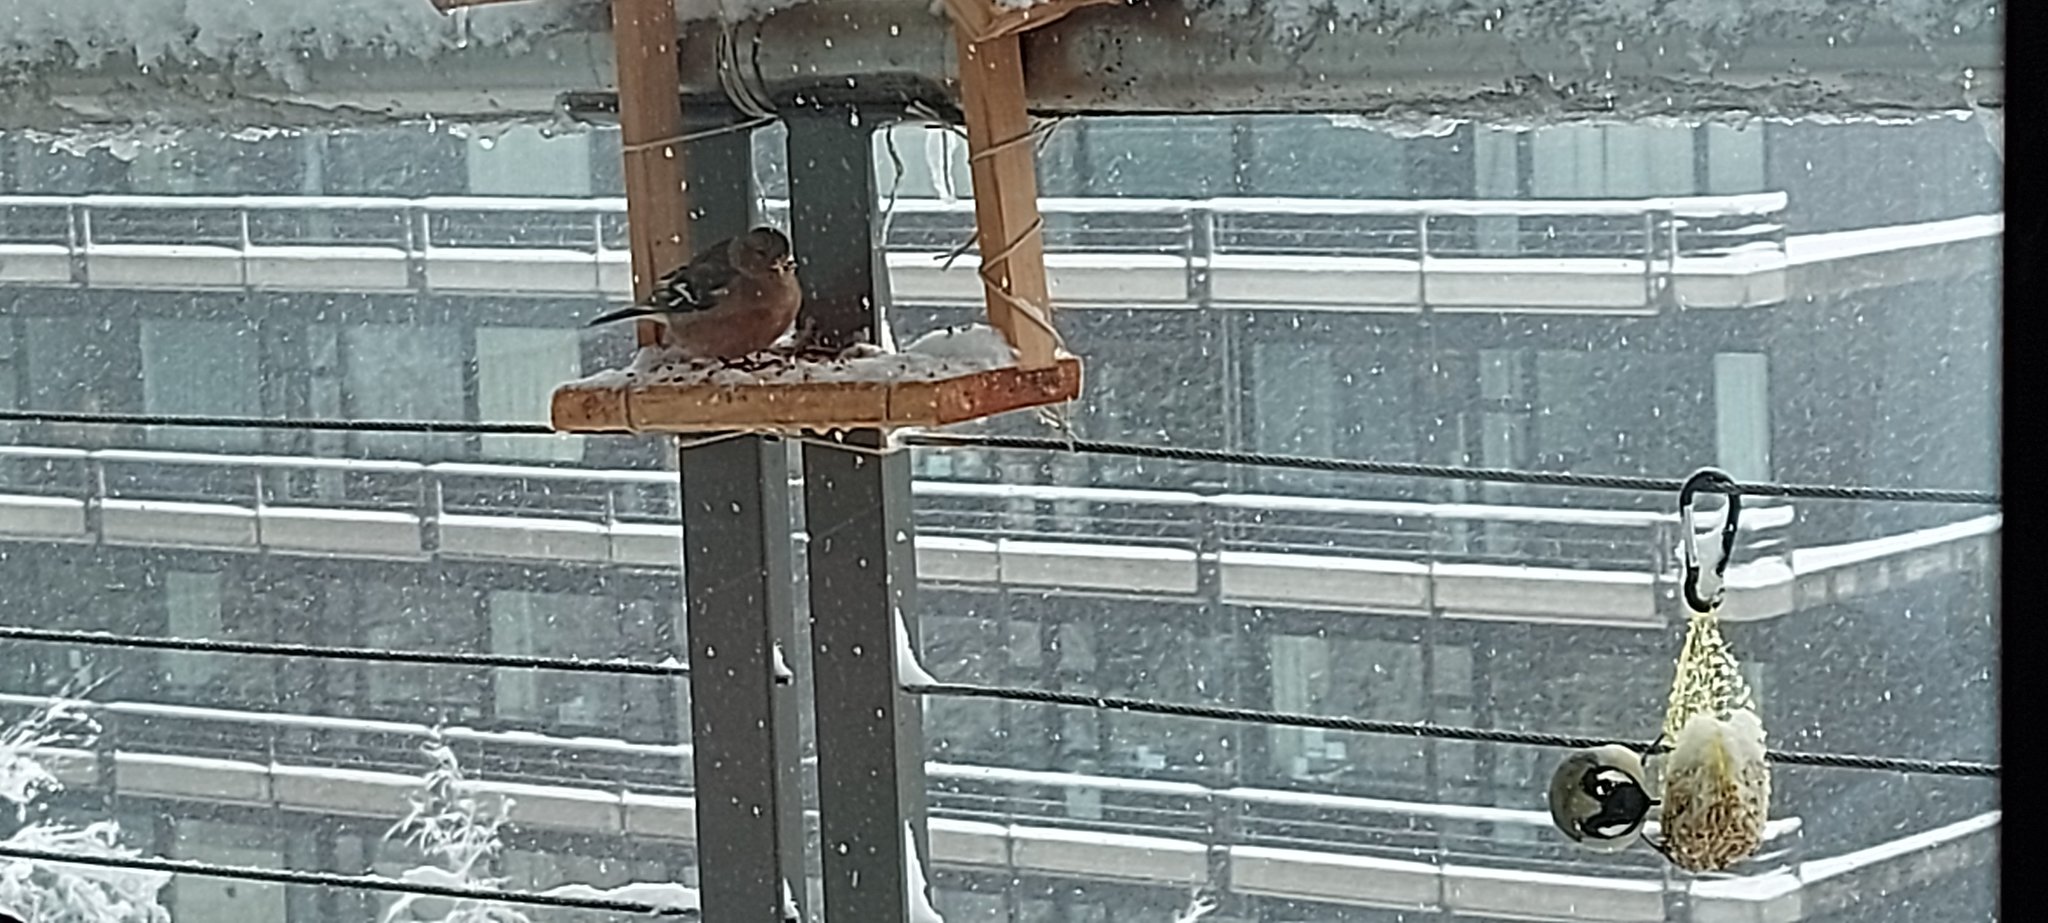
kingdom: Animalia
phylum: Chordata
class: Aves
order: Passeriformes
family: Fringillidae
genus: Fringilla
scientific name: Fringilla coelebs
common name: Common chaffinch
